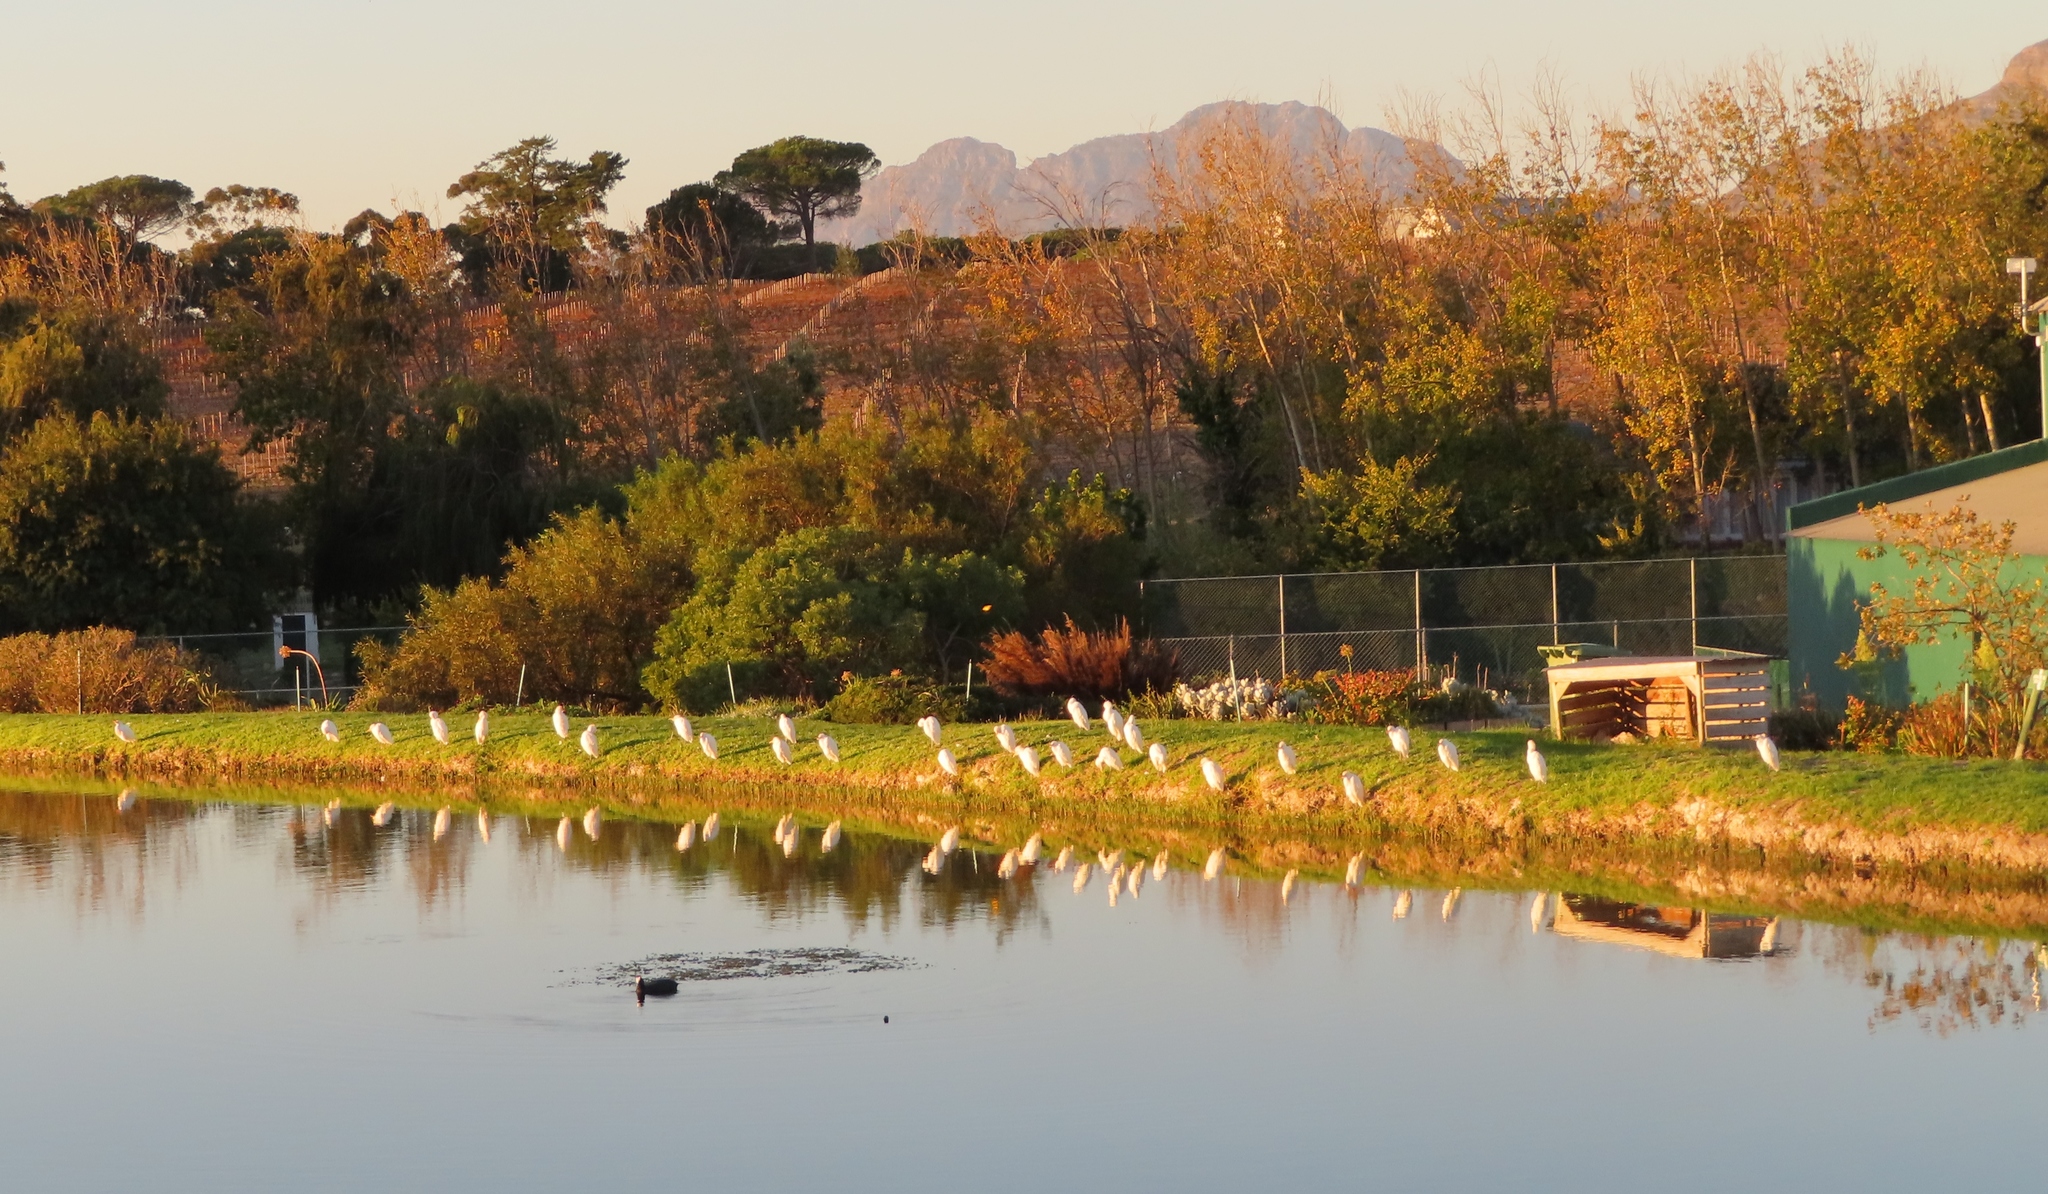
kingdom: Animalia
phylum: Chordata
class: Aves
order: Pelecaniformes
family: Ardeidae
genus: Bubulcus
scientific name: Bubulcus ibis
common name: Cattle egret
